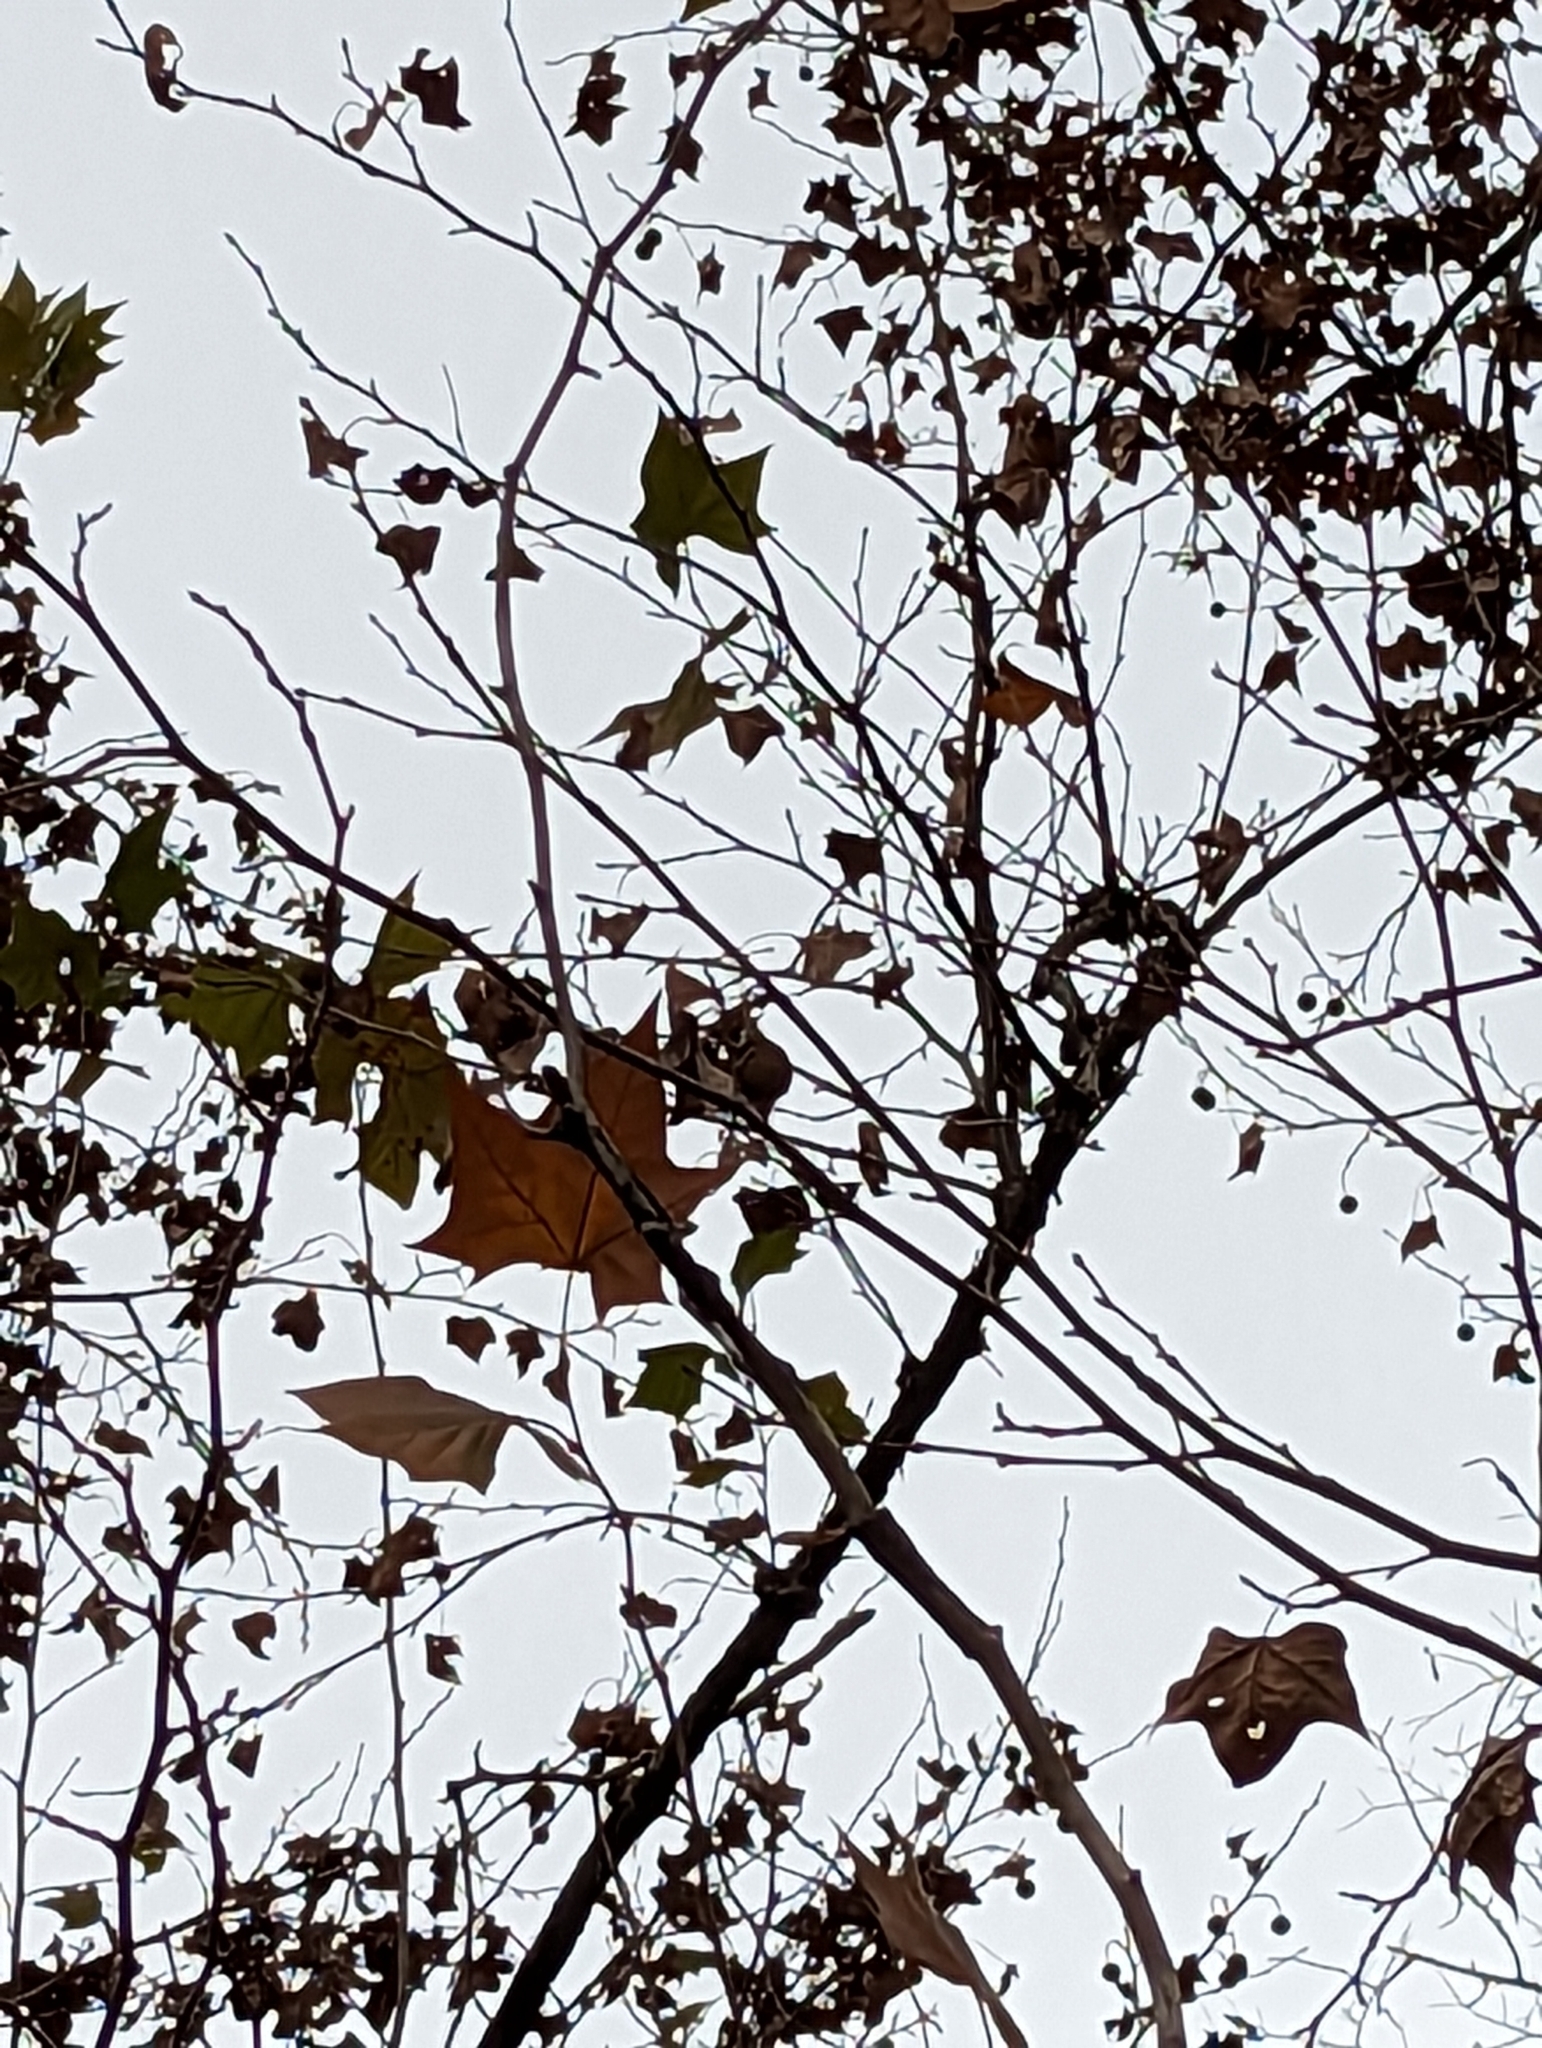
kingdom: Plantae
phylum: Tracheophyta
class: Magnoliopsida
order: Proteales
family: Platanaceae
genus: Platanus
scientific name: Platanus occidentalis
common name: American sycamore
